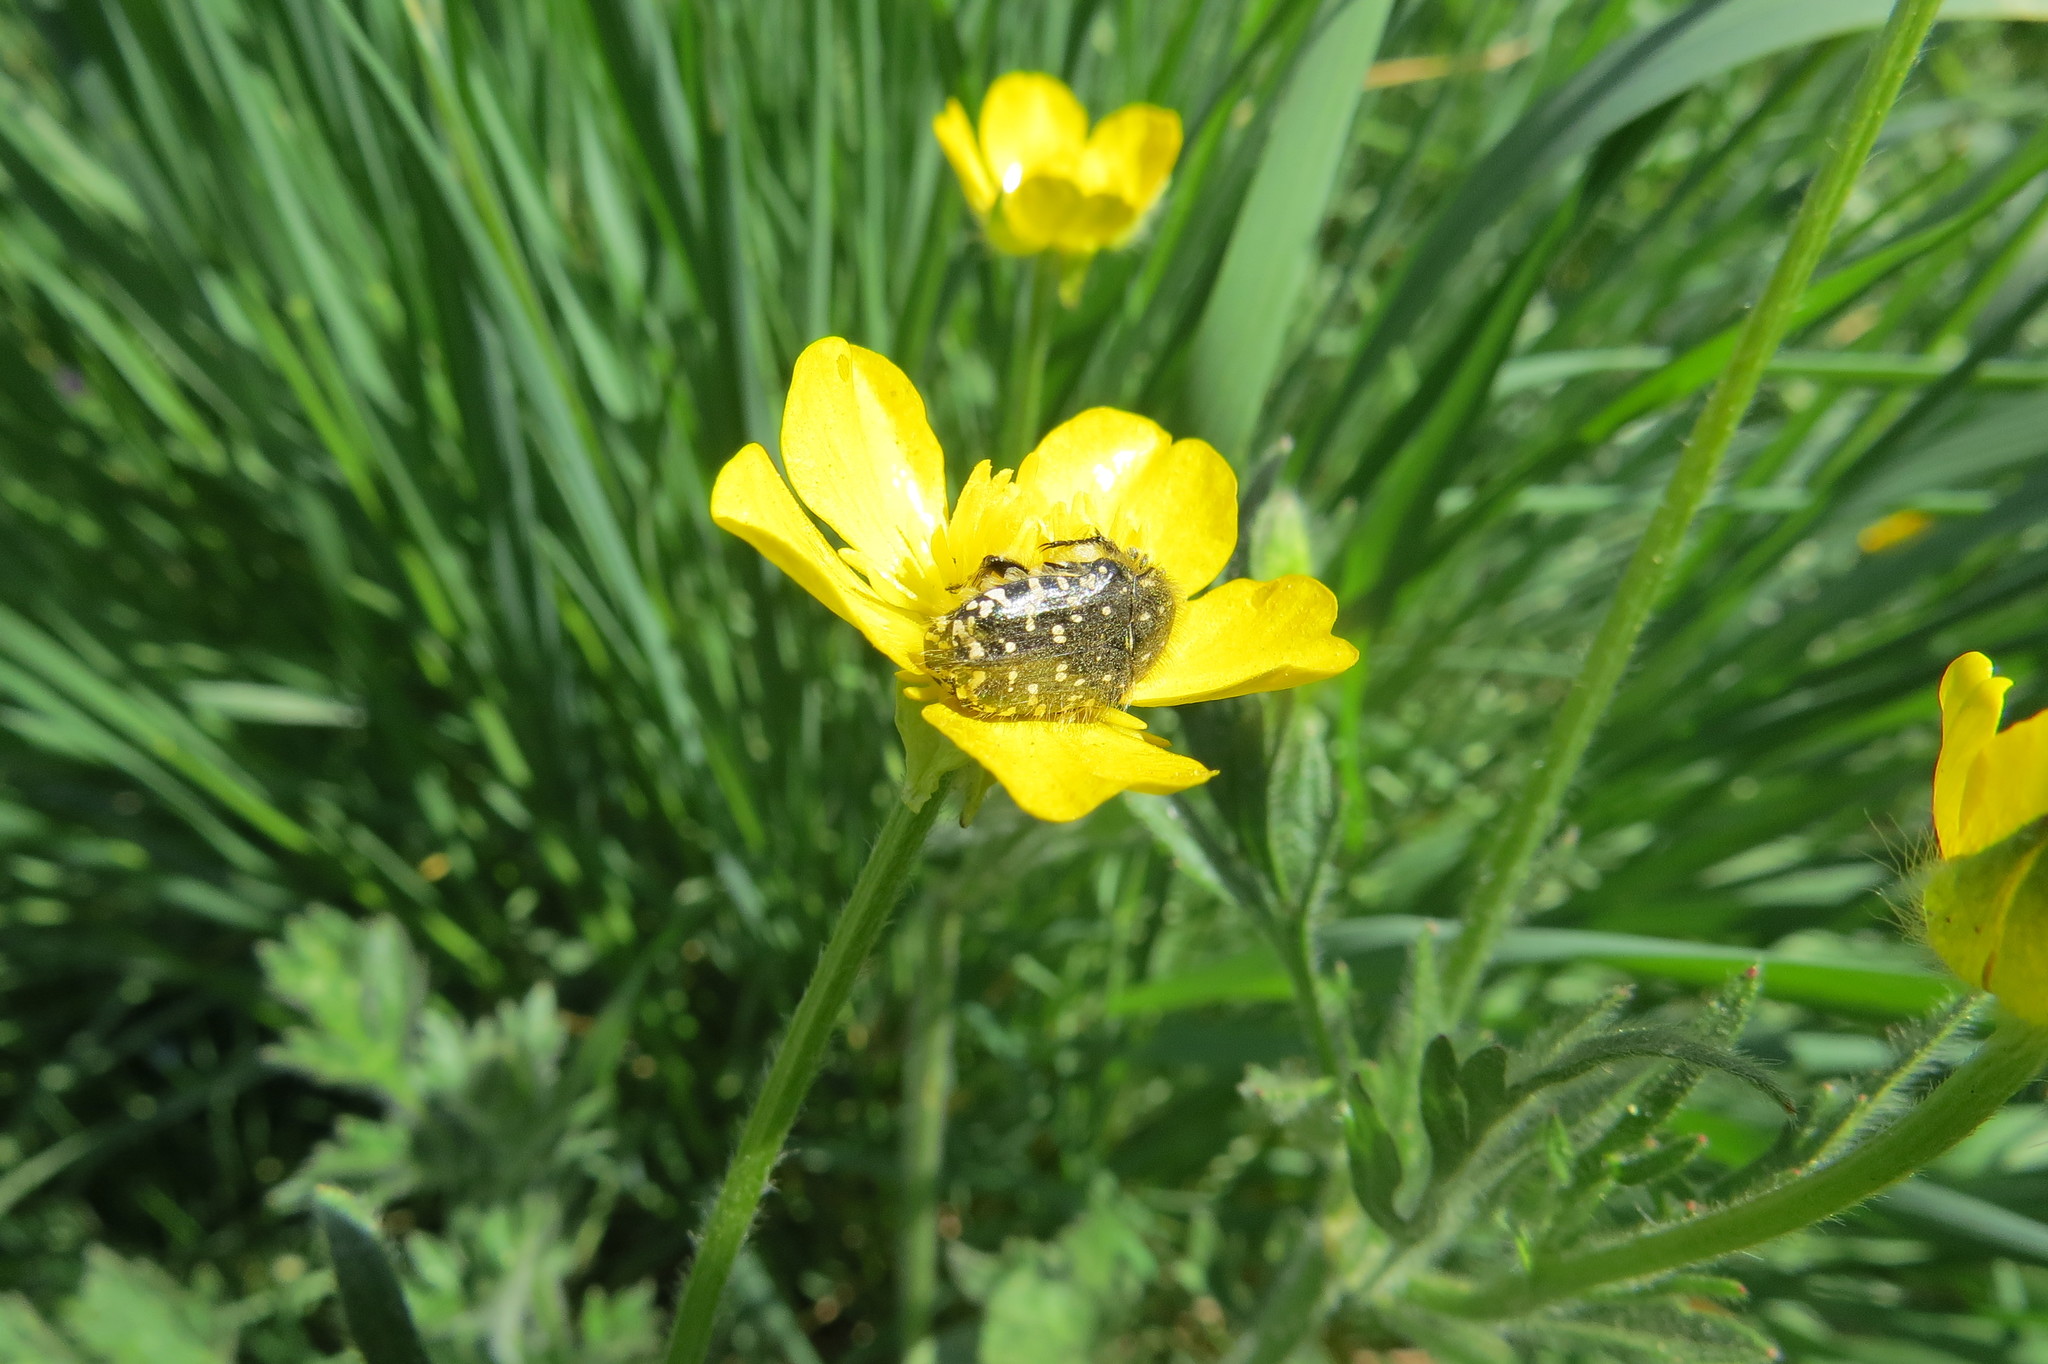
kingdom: Animalia
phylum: Arthropoda
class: Insecta
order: Coleoptera
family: Scarabaeidae
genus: Oxythyrea
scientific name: Oxythyrea funesta
